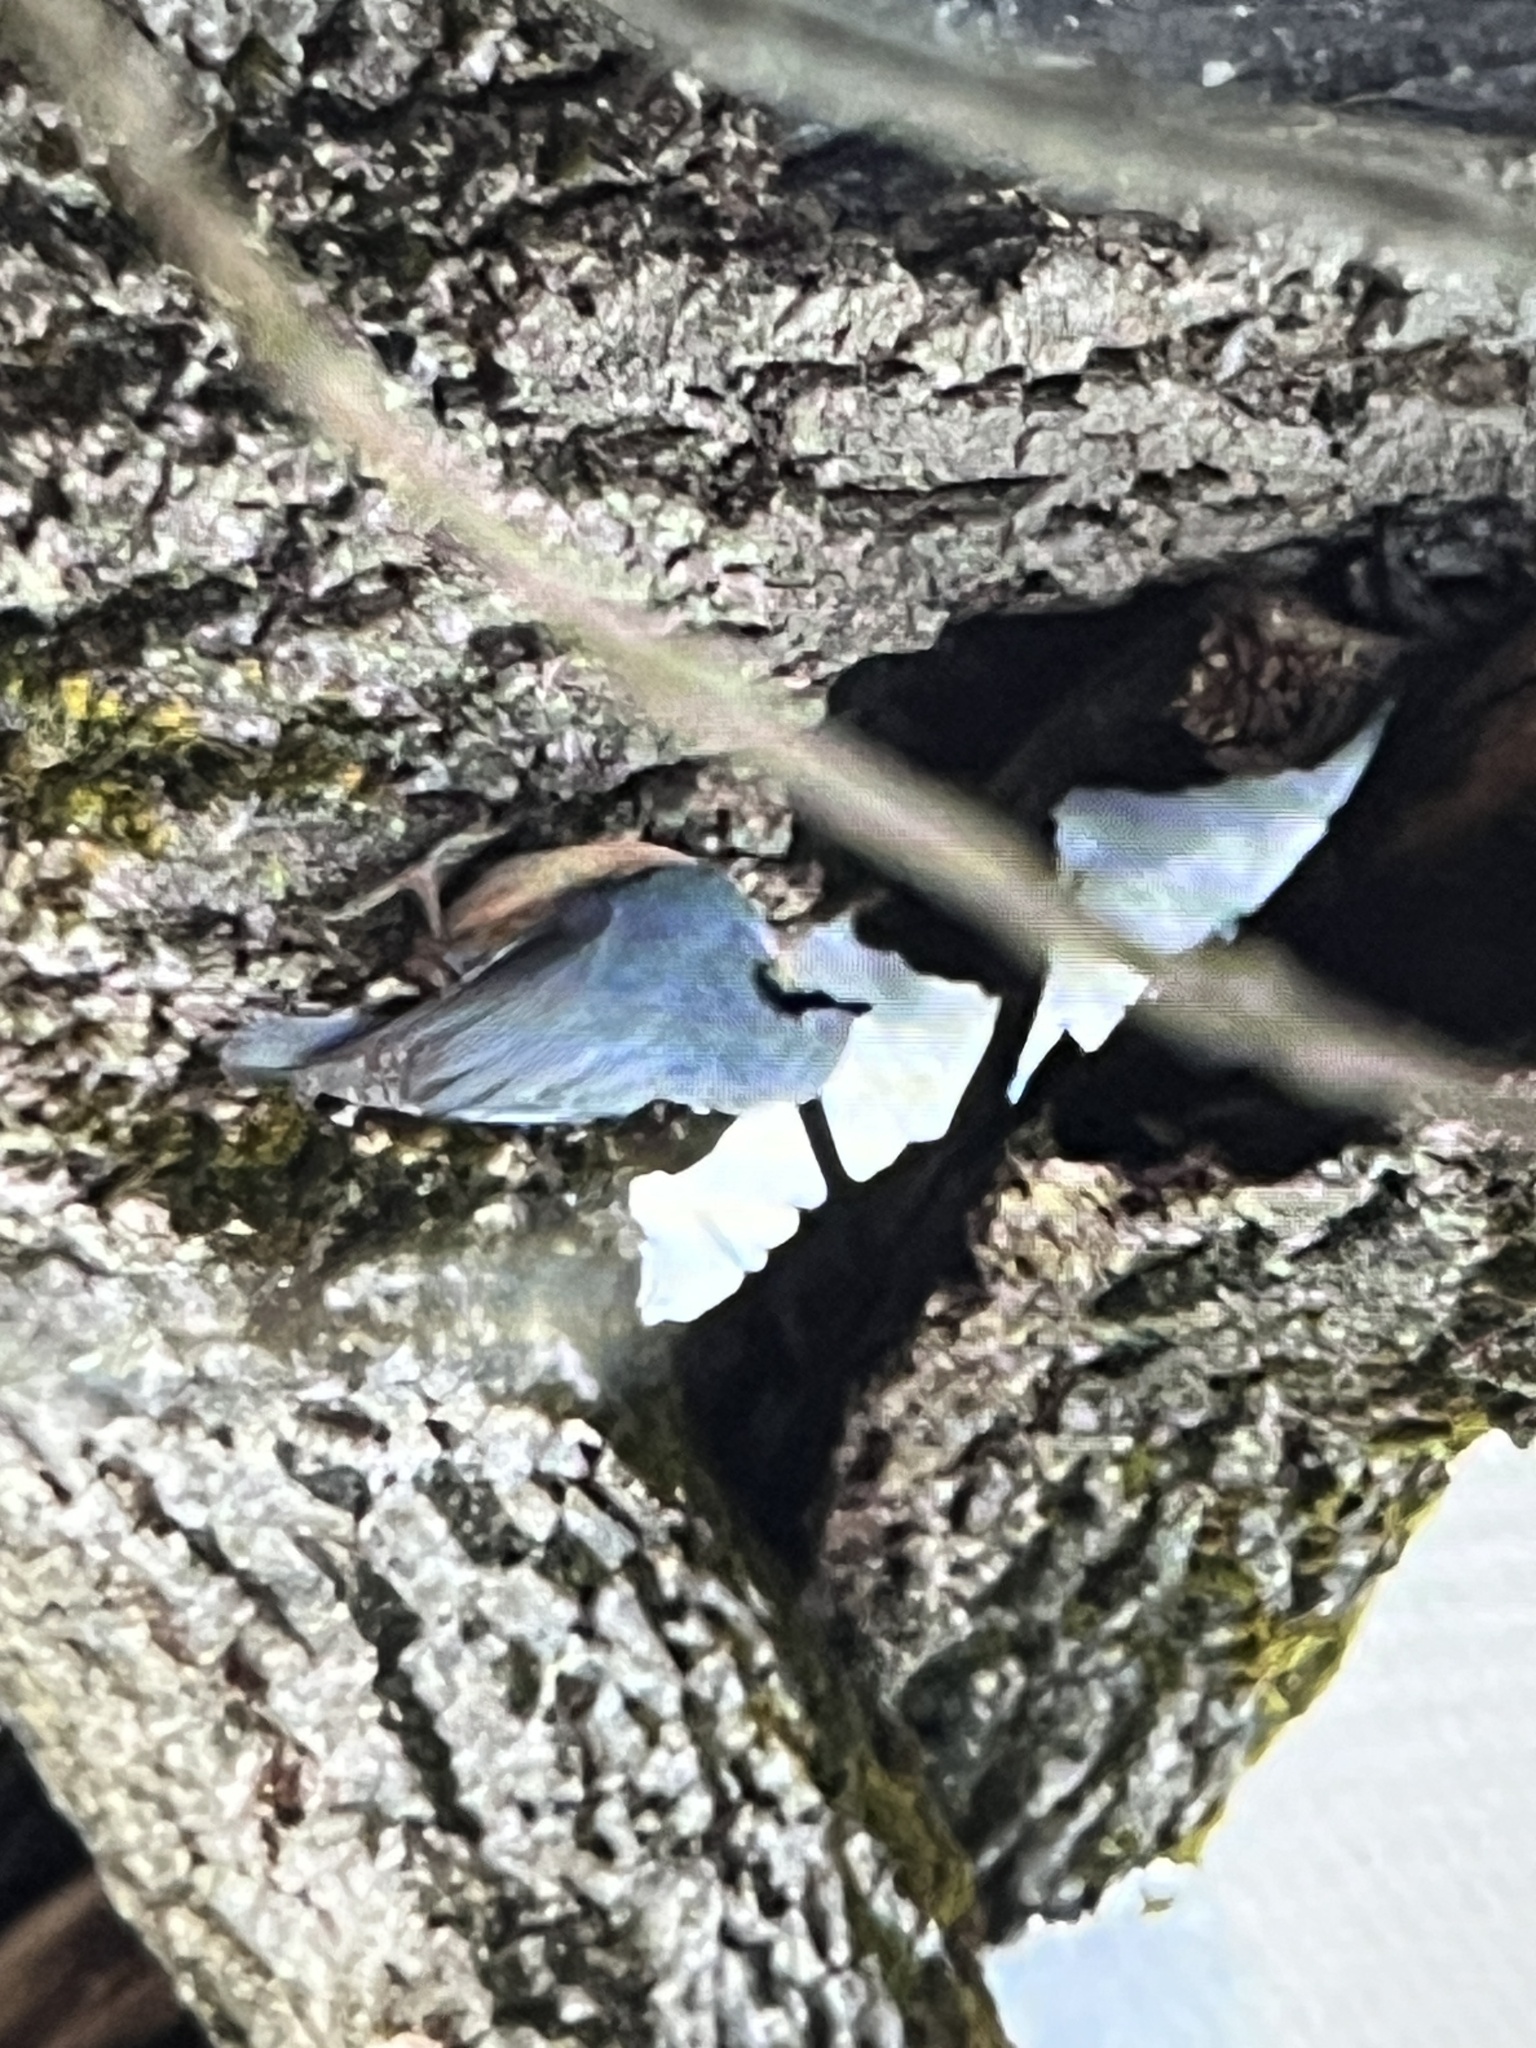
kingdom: Animalia
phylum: Chordata
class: Aves
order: Passeriformes
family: Sittidae
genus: Sitta
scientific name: Sitta europaea
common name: Eurasian nuthatch
